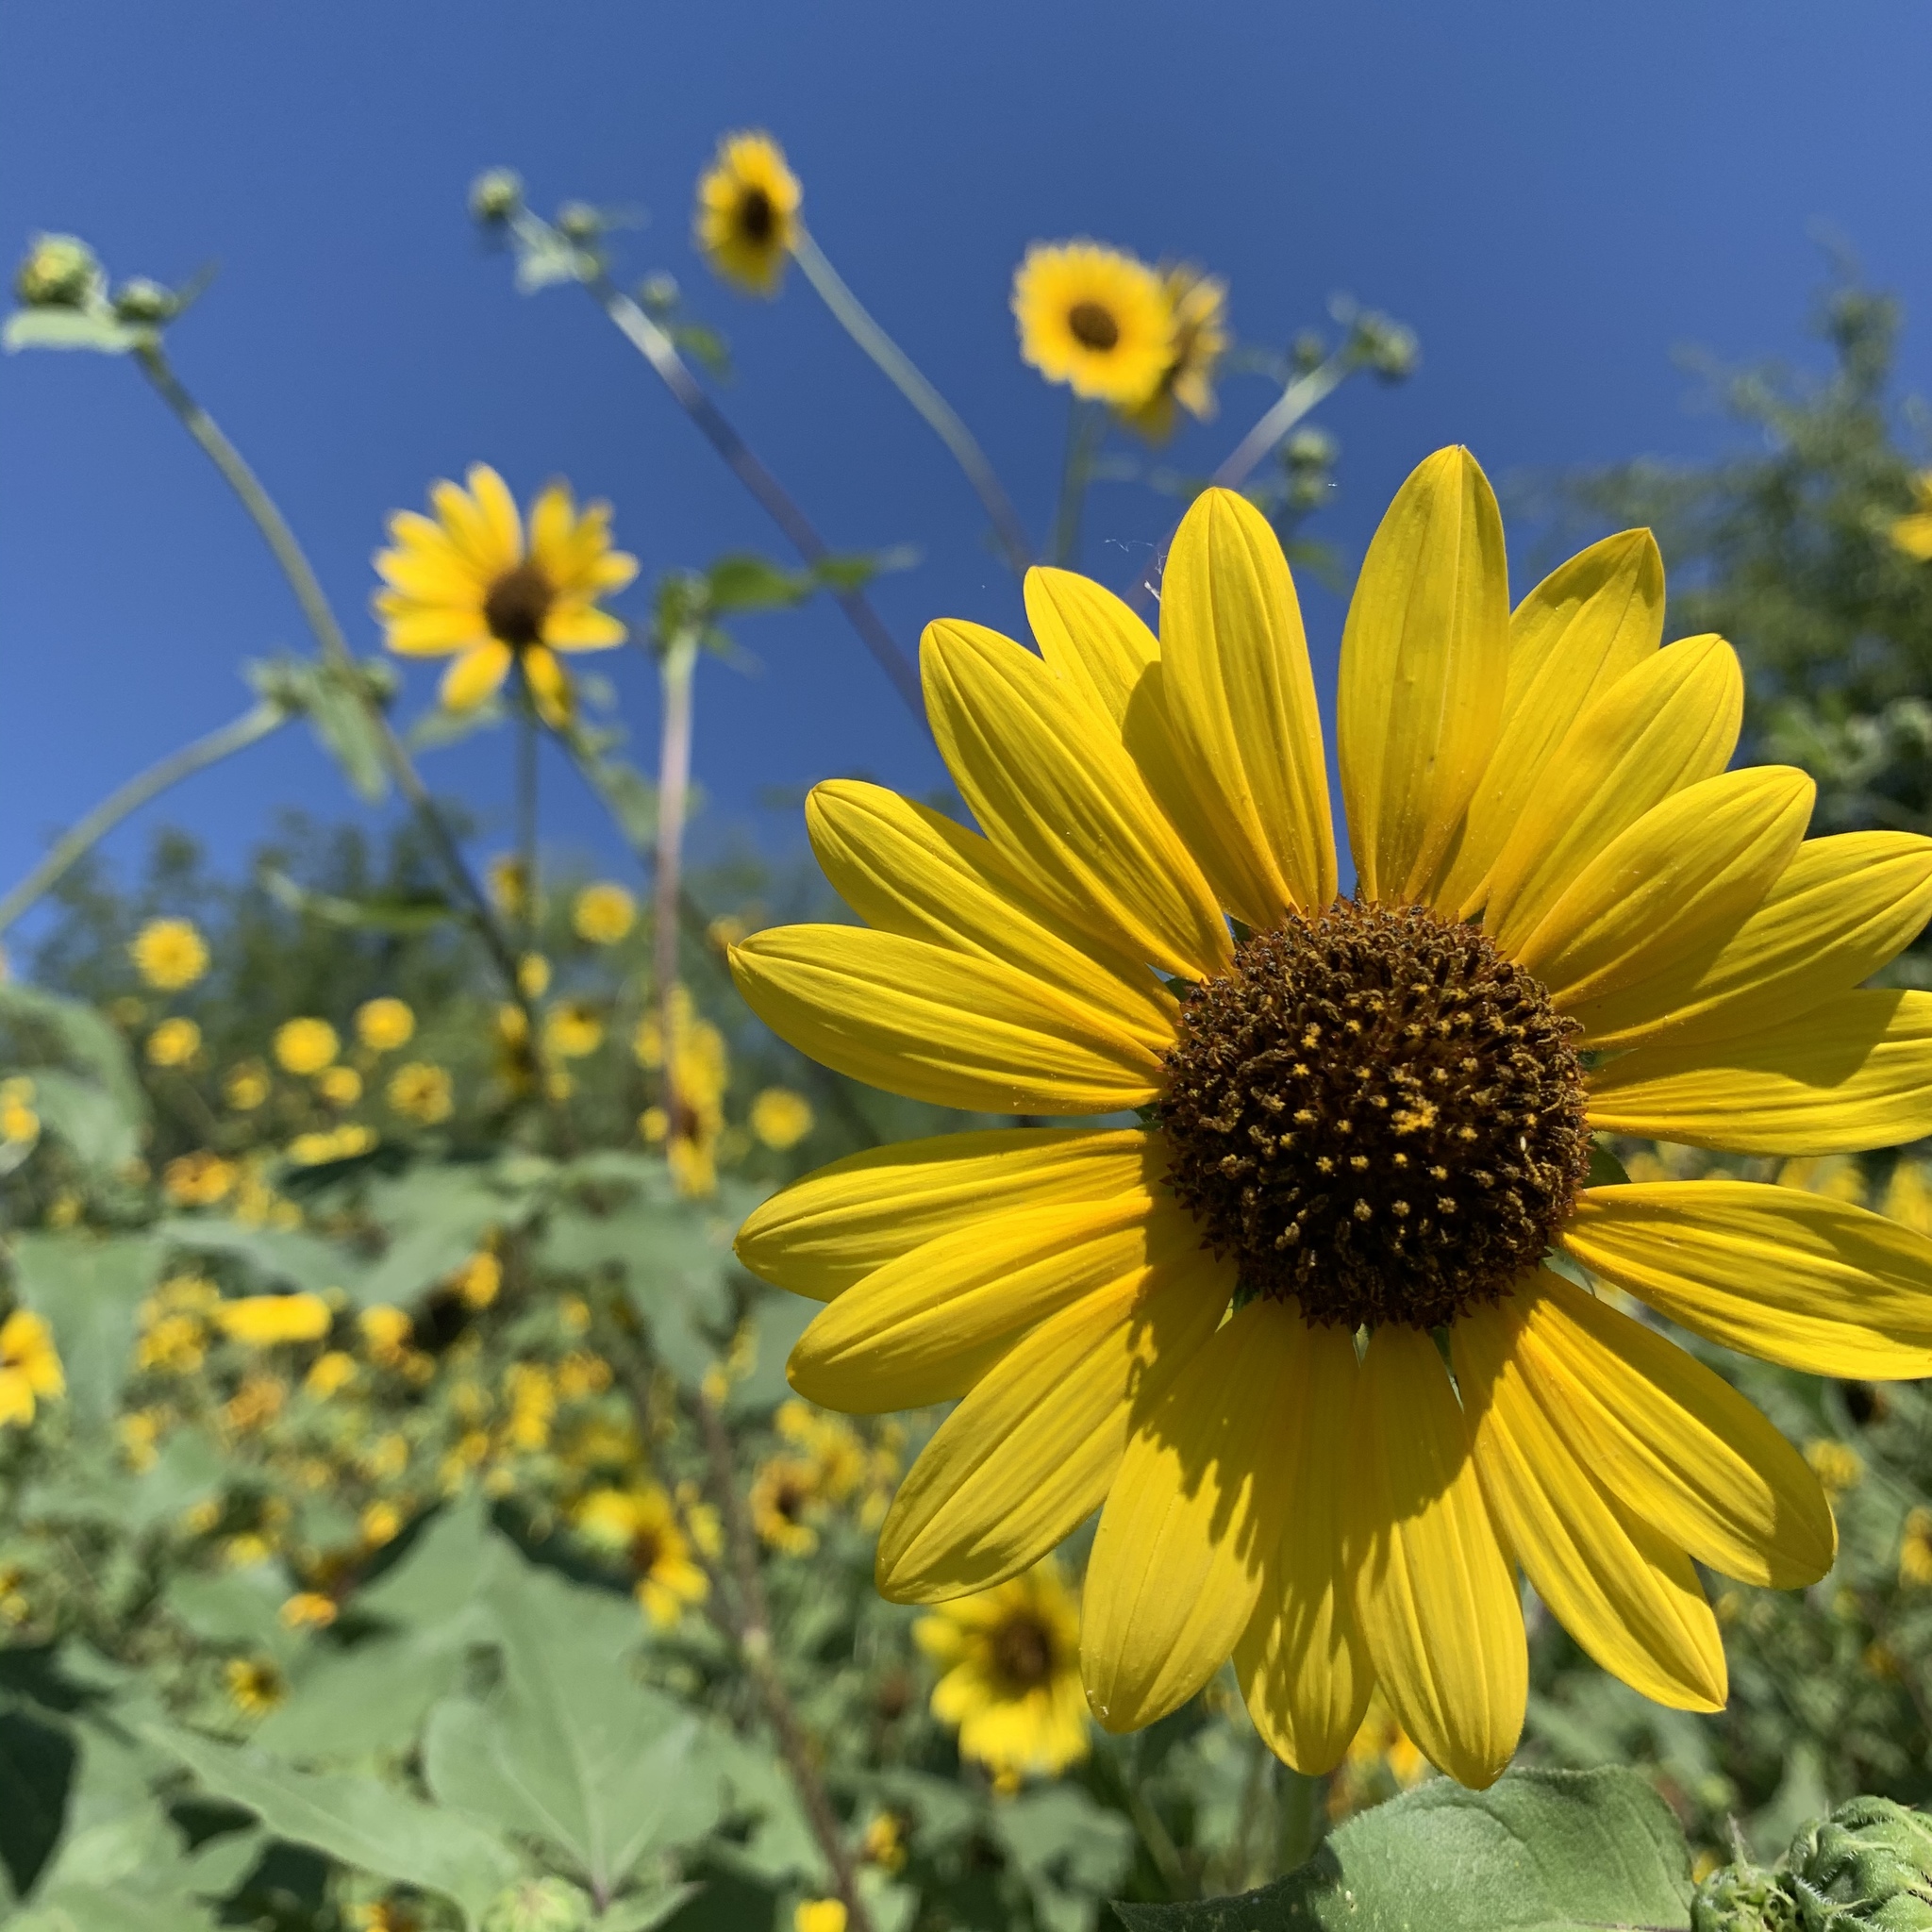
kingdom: Plantae
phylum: Tracheophyta
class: Magnoliopsida
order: Asterales
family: Asteraceae
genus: Helianthus
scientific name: Helianthus annuus
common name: Sunflower
